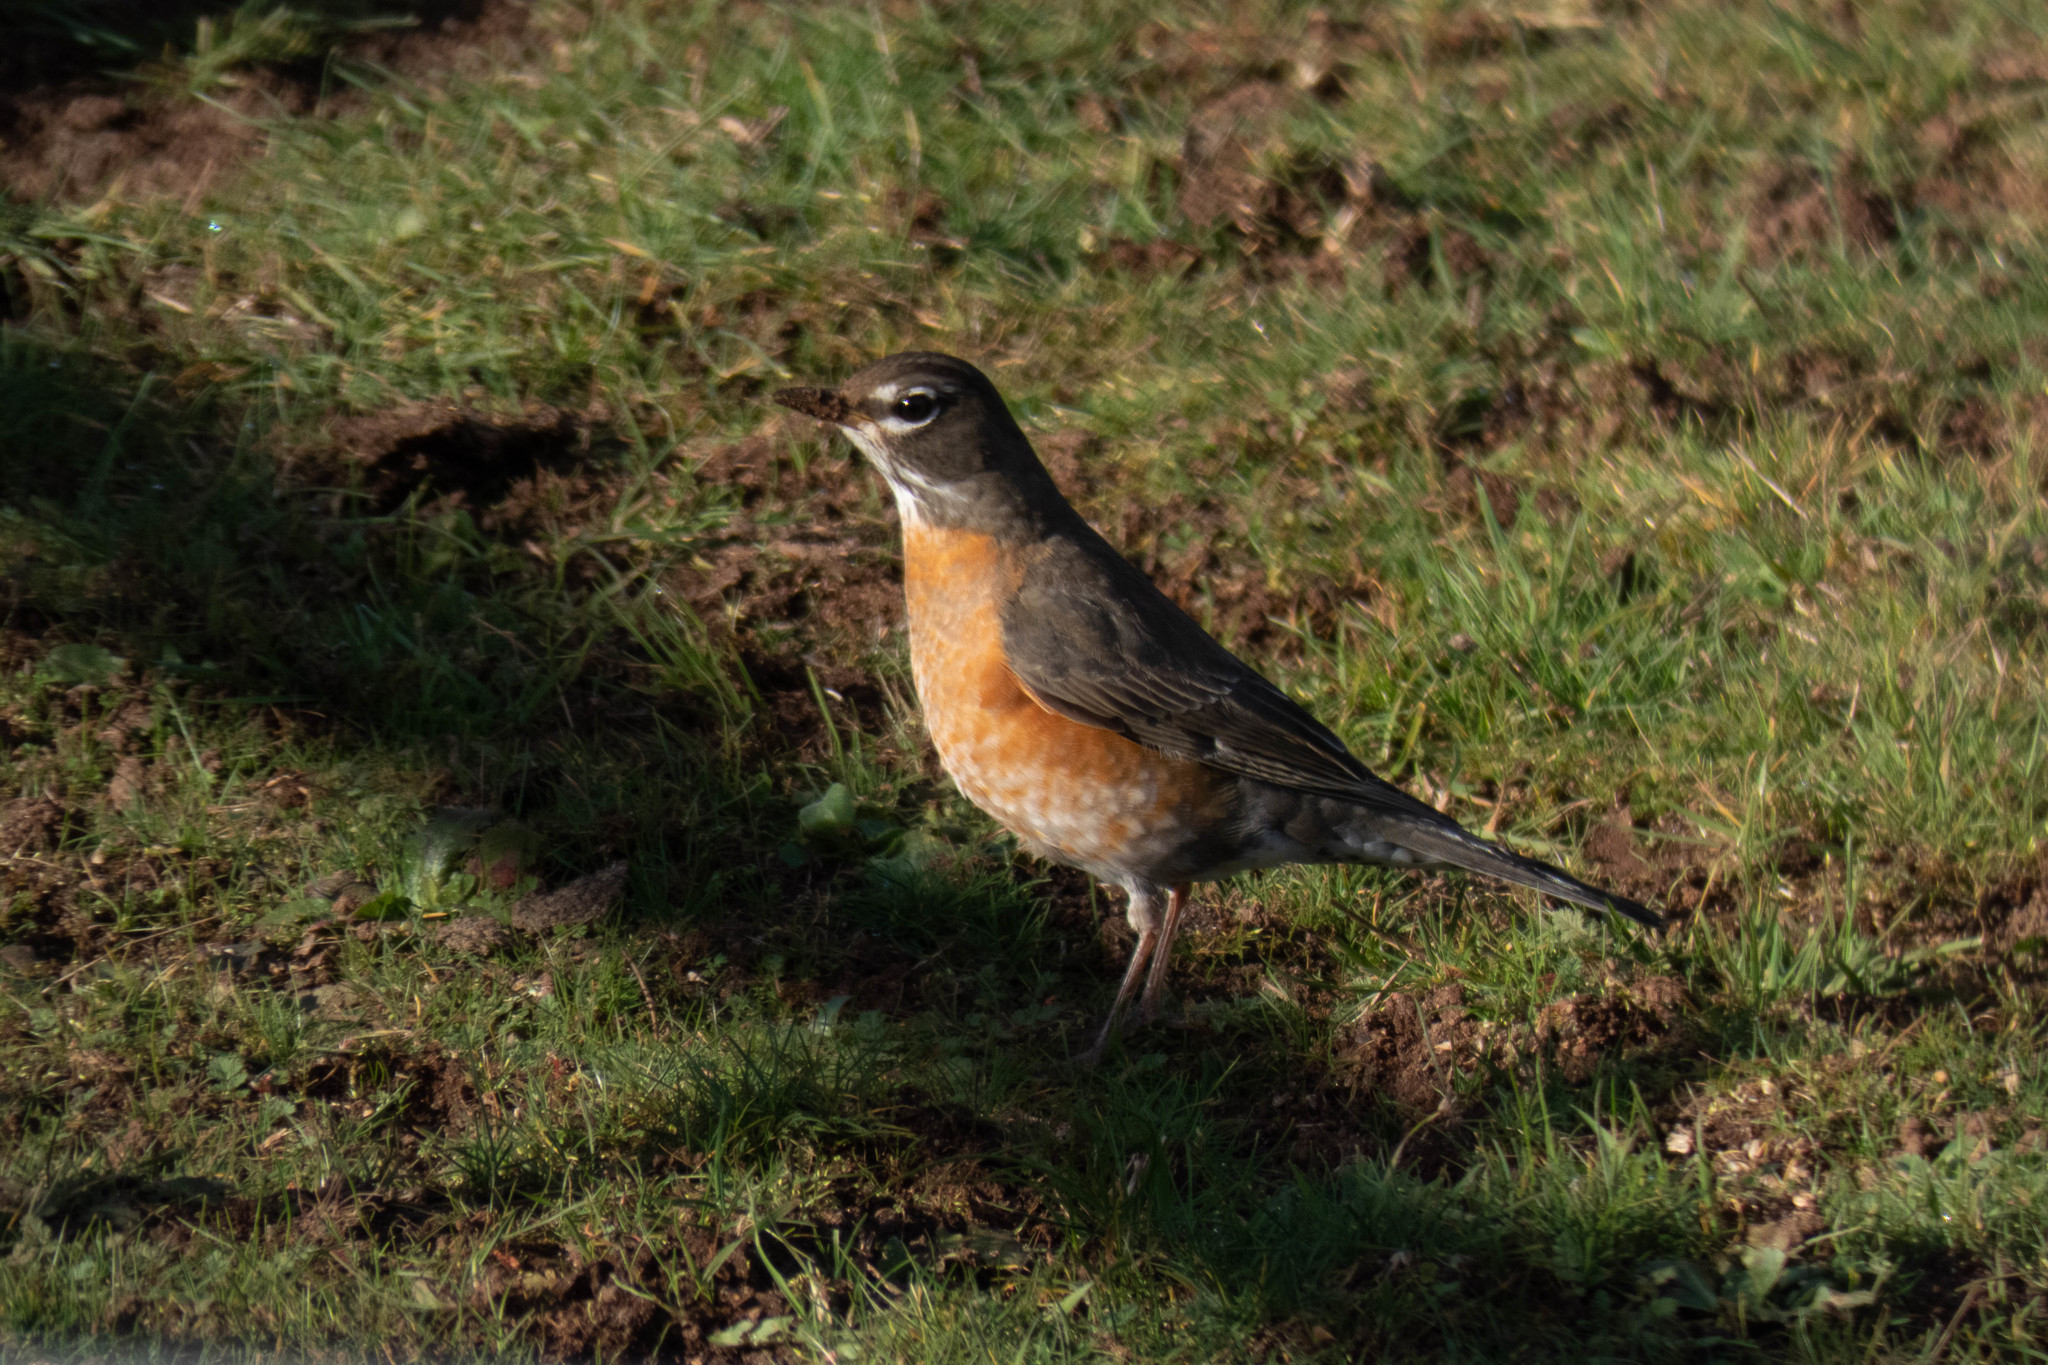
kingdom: Animalia
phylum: Chordata
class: Aves
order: Passeriformes
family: Turdidae
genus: Turdus
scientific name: Turdus migratorius
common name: American robin
